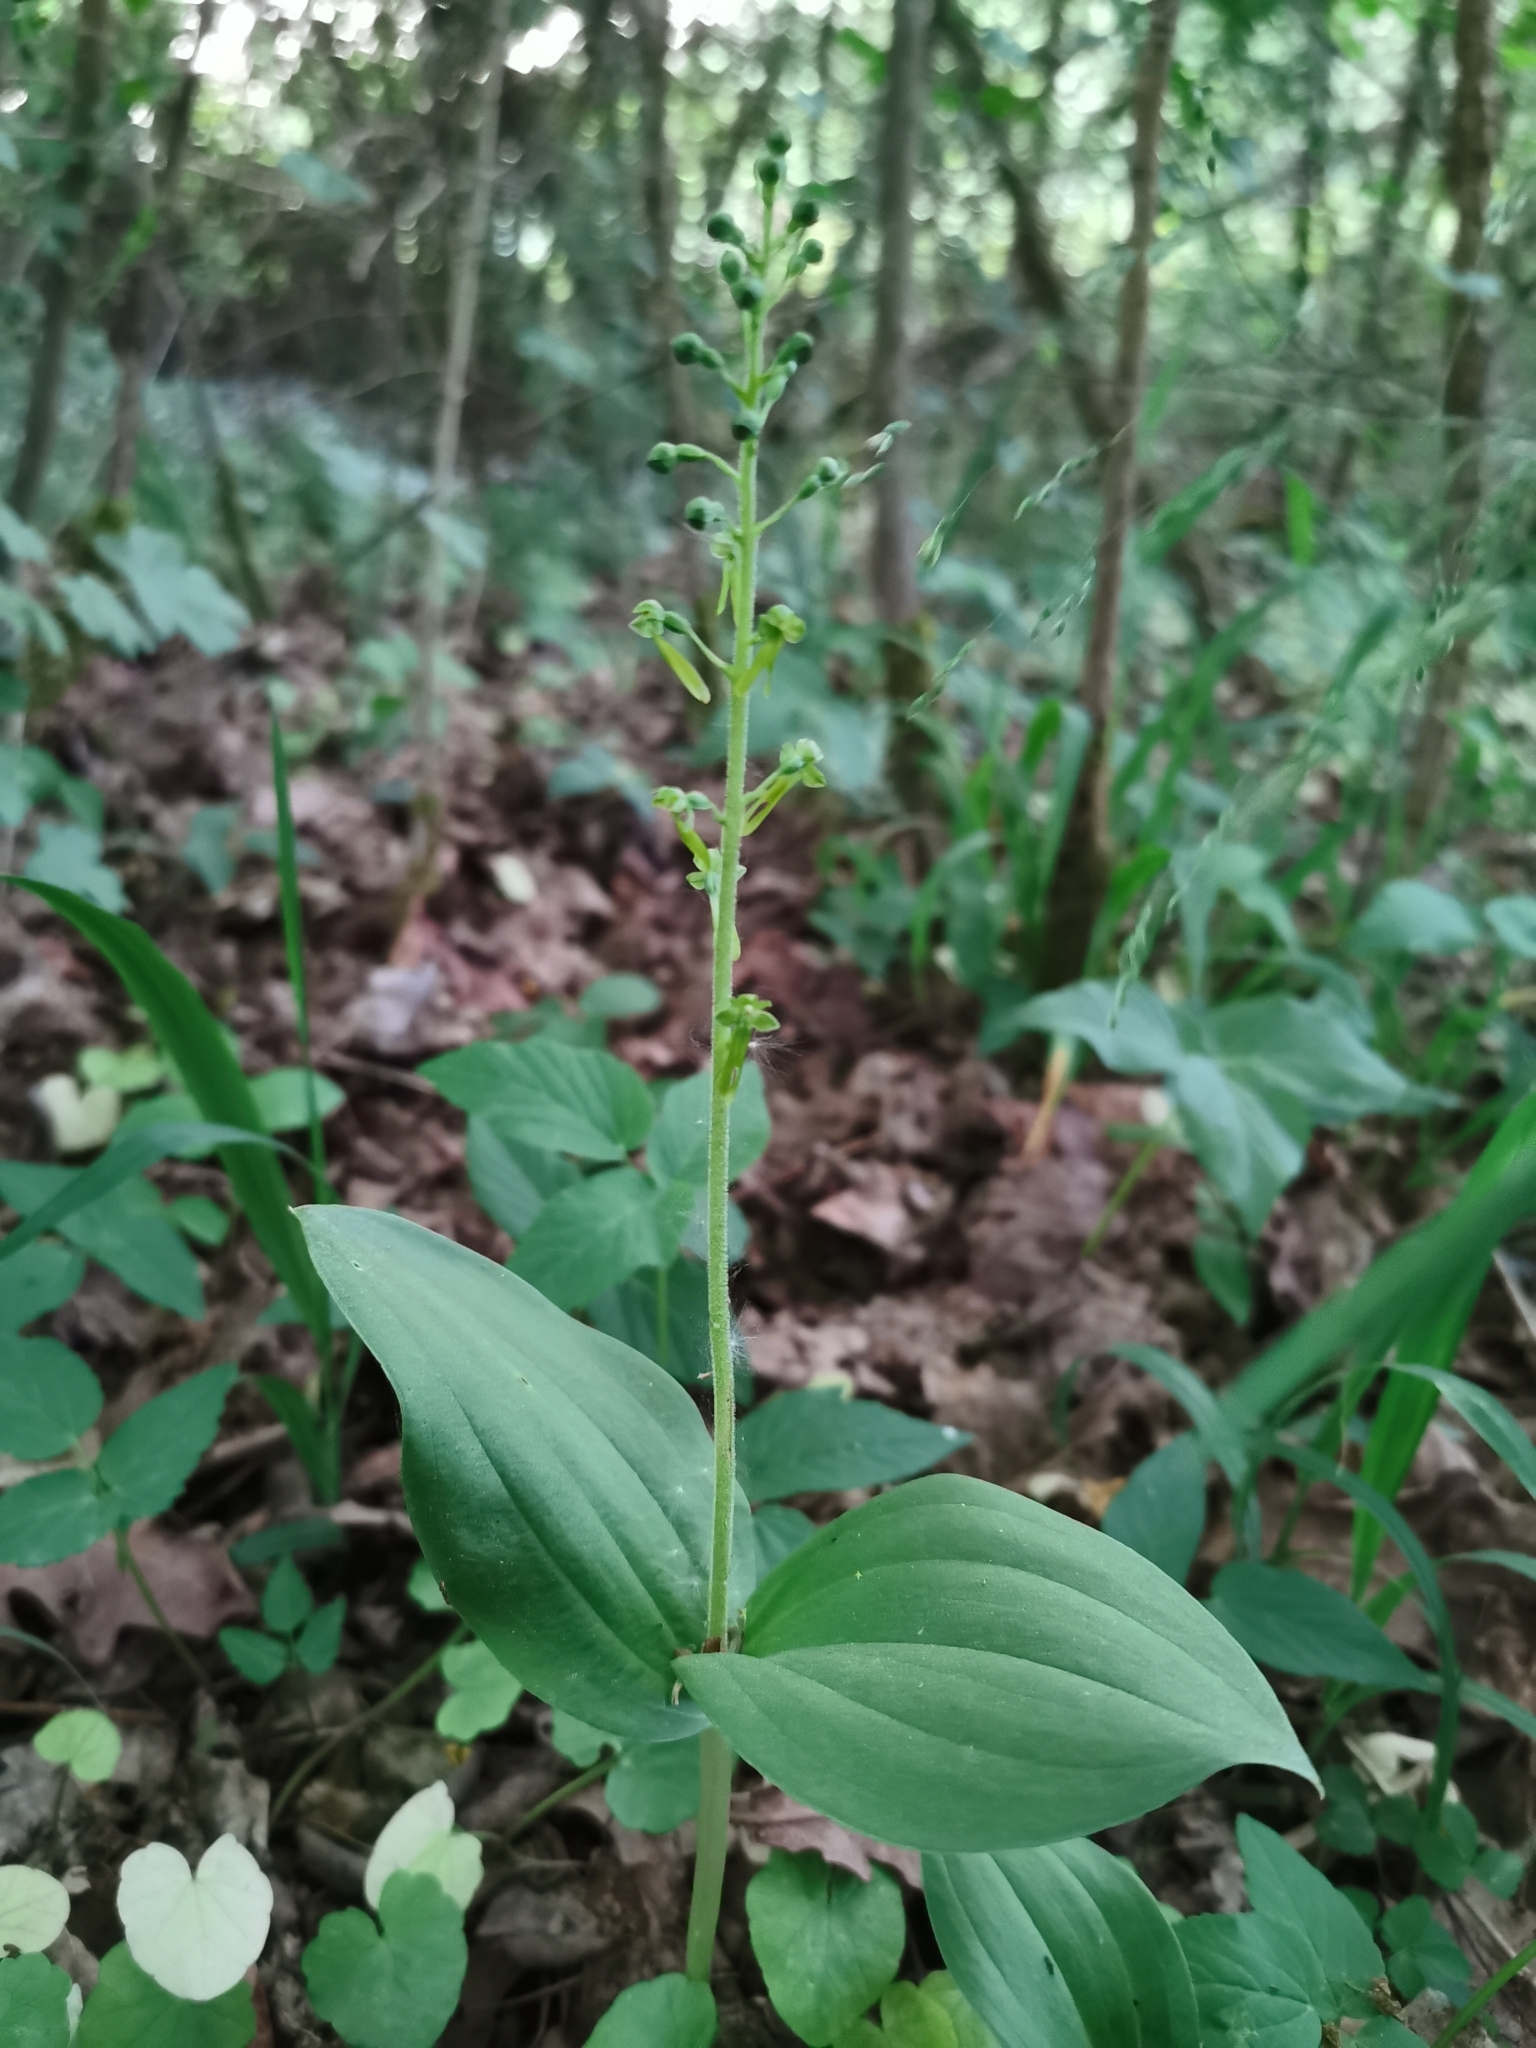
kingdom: Plantae
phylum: Tracheophyta
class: Liliopsida
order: Asparagales
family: Orchidaceae
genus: Neottia
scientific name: Neottia ovata
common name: Common twayblade
